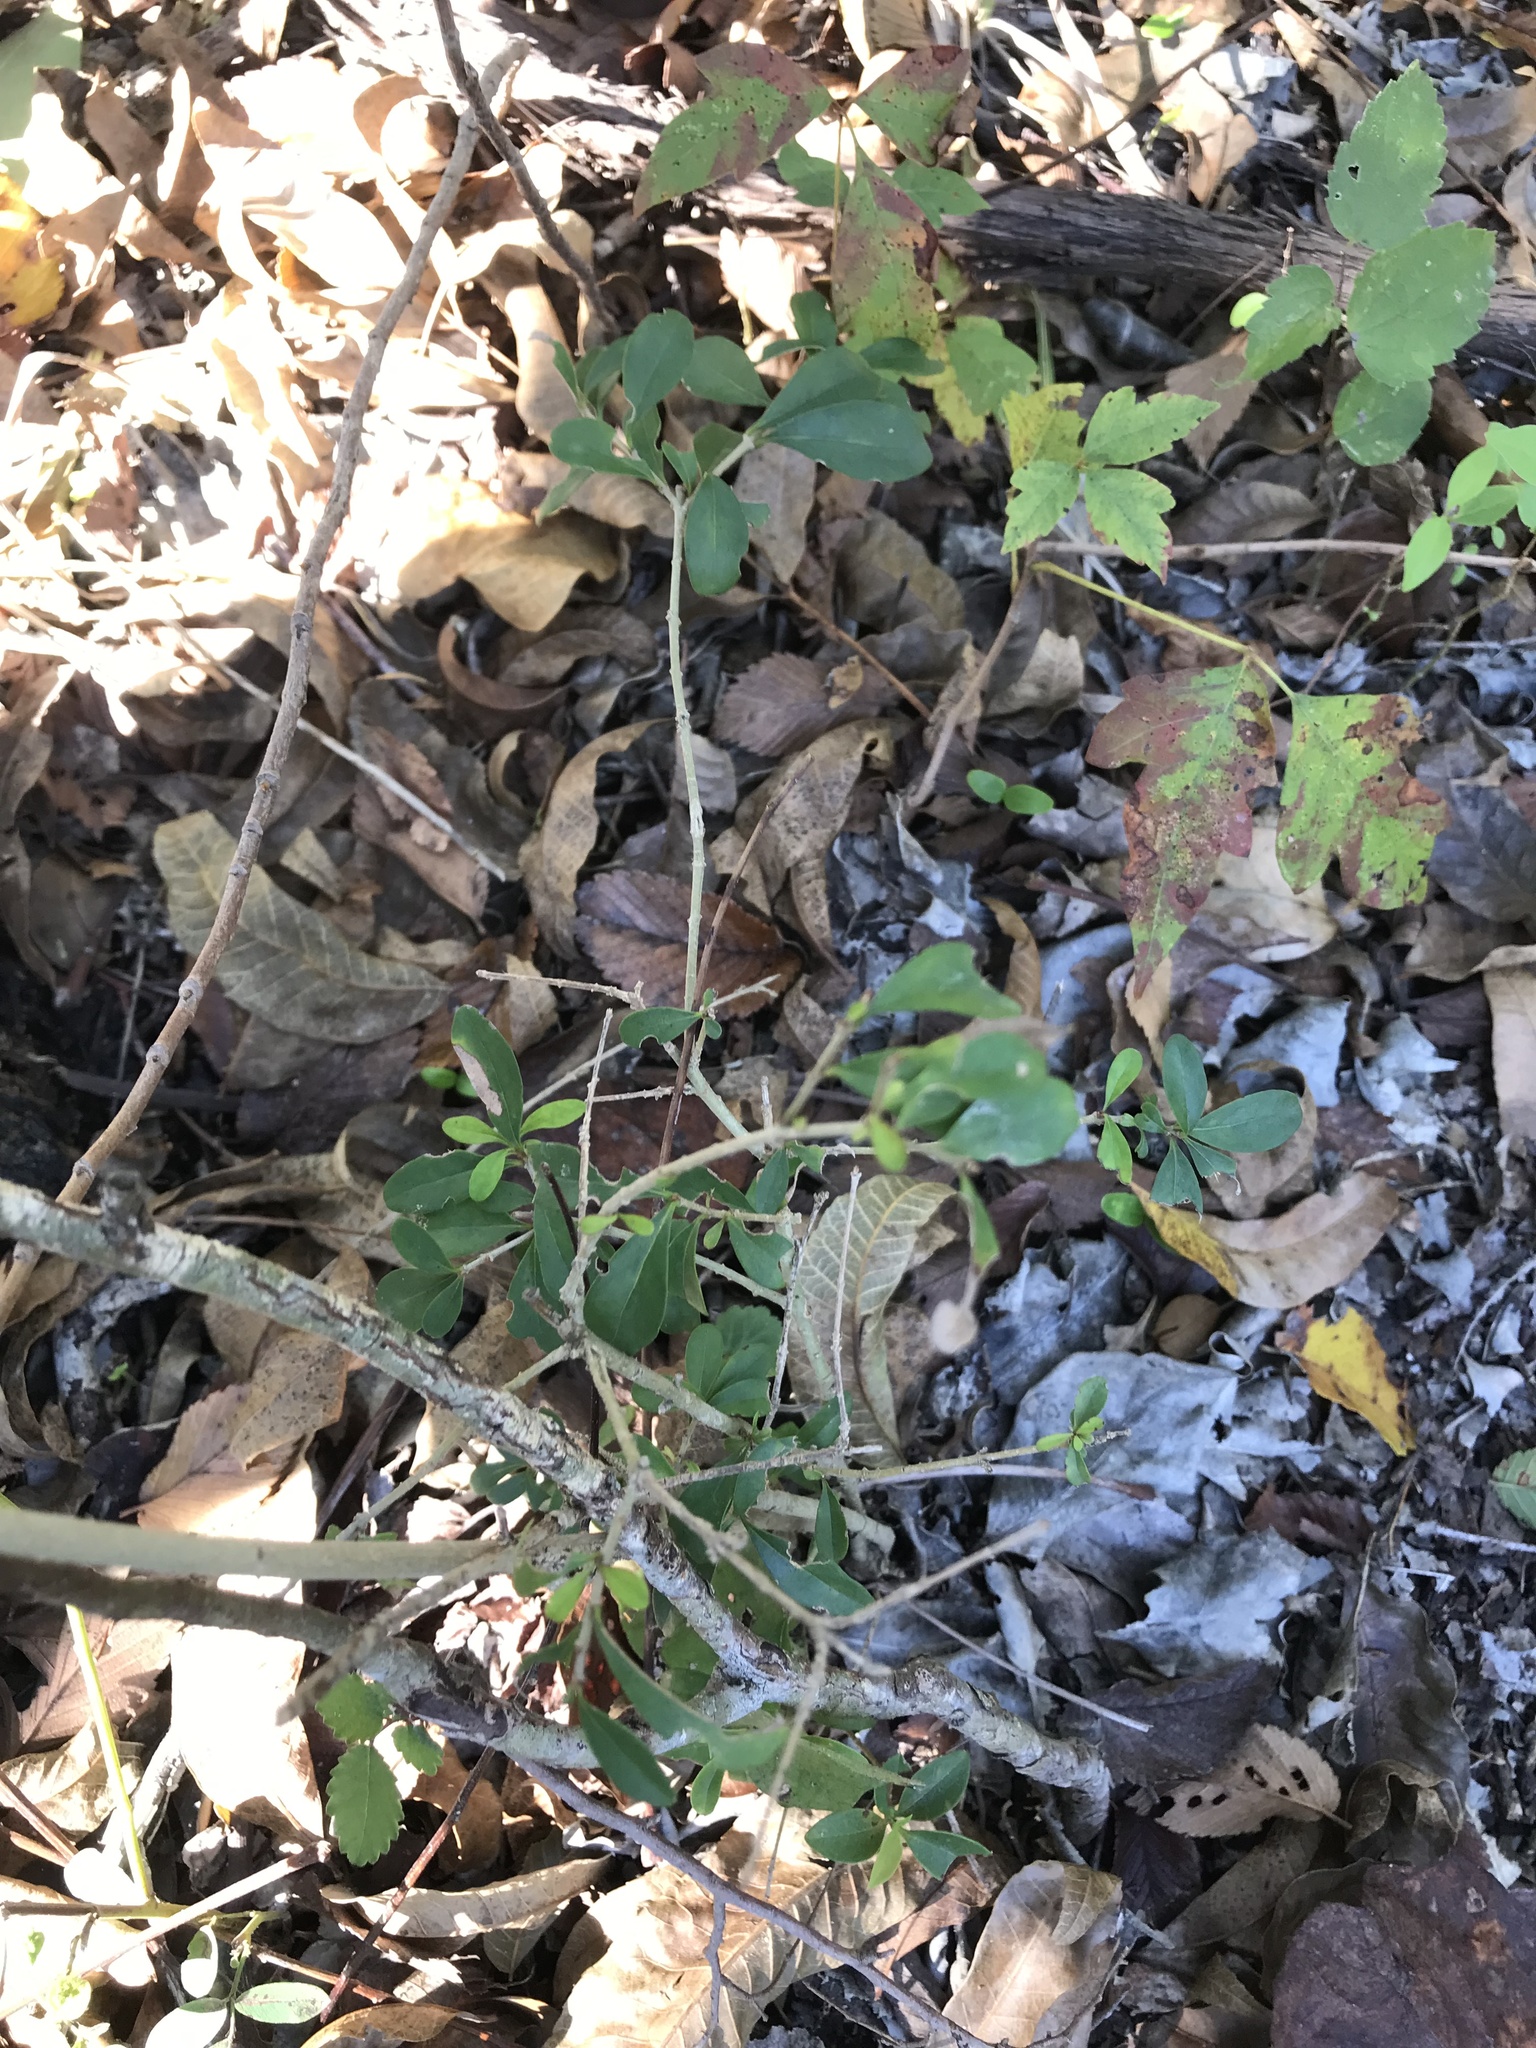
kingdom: Plantae
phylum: Tracheophyta
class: Magnoliopsida
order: Lamiales
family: Oleaceae
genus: Ligustrum
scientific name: Ligustrum quihoui
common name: Waxyleaf privet
